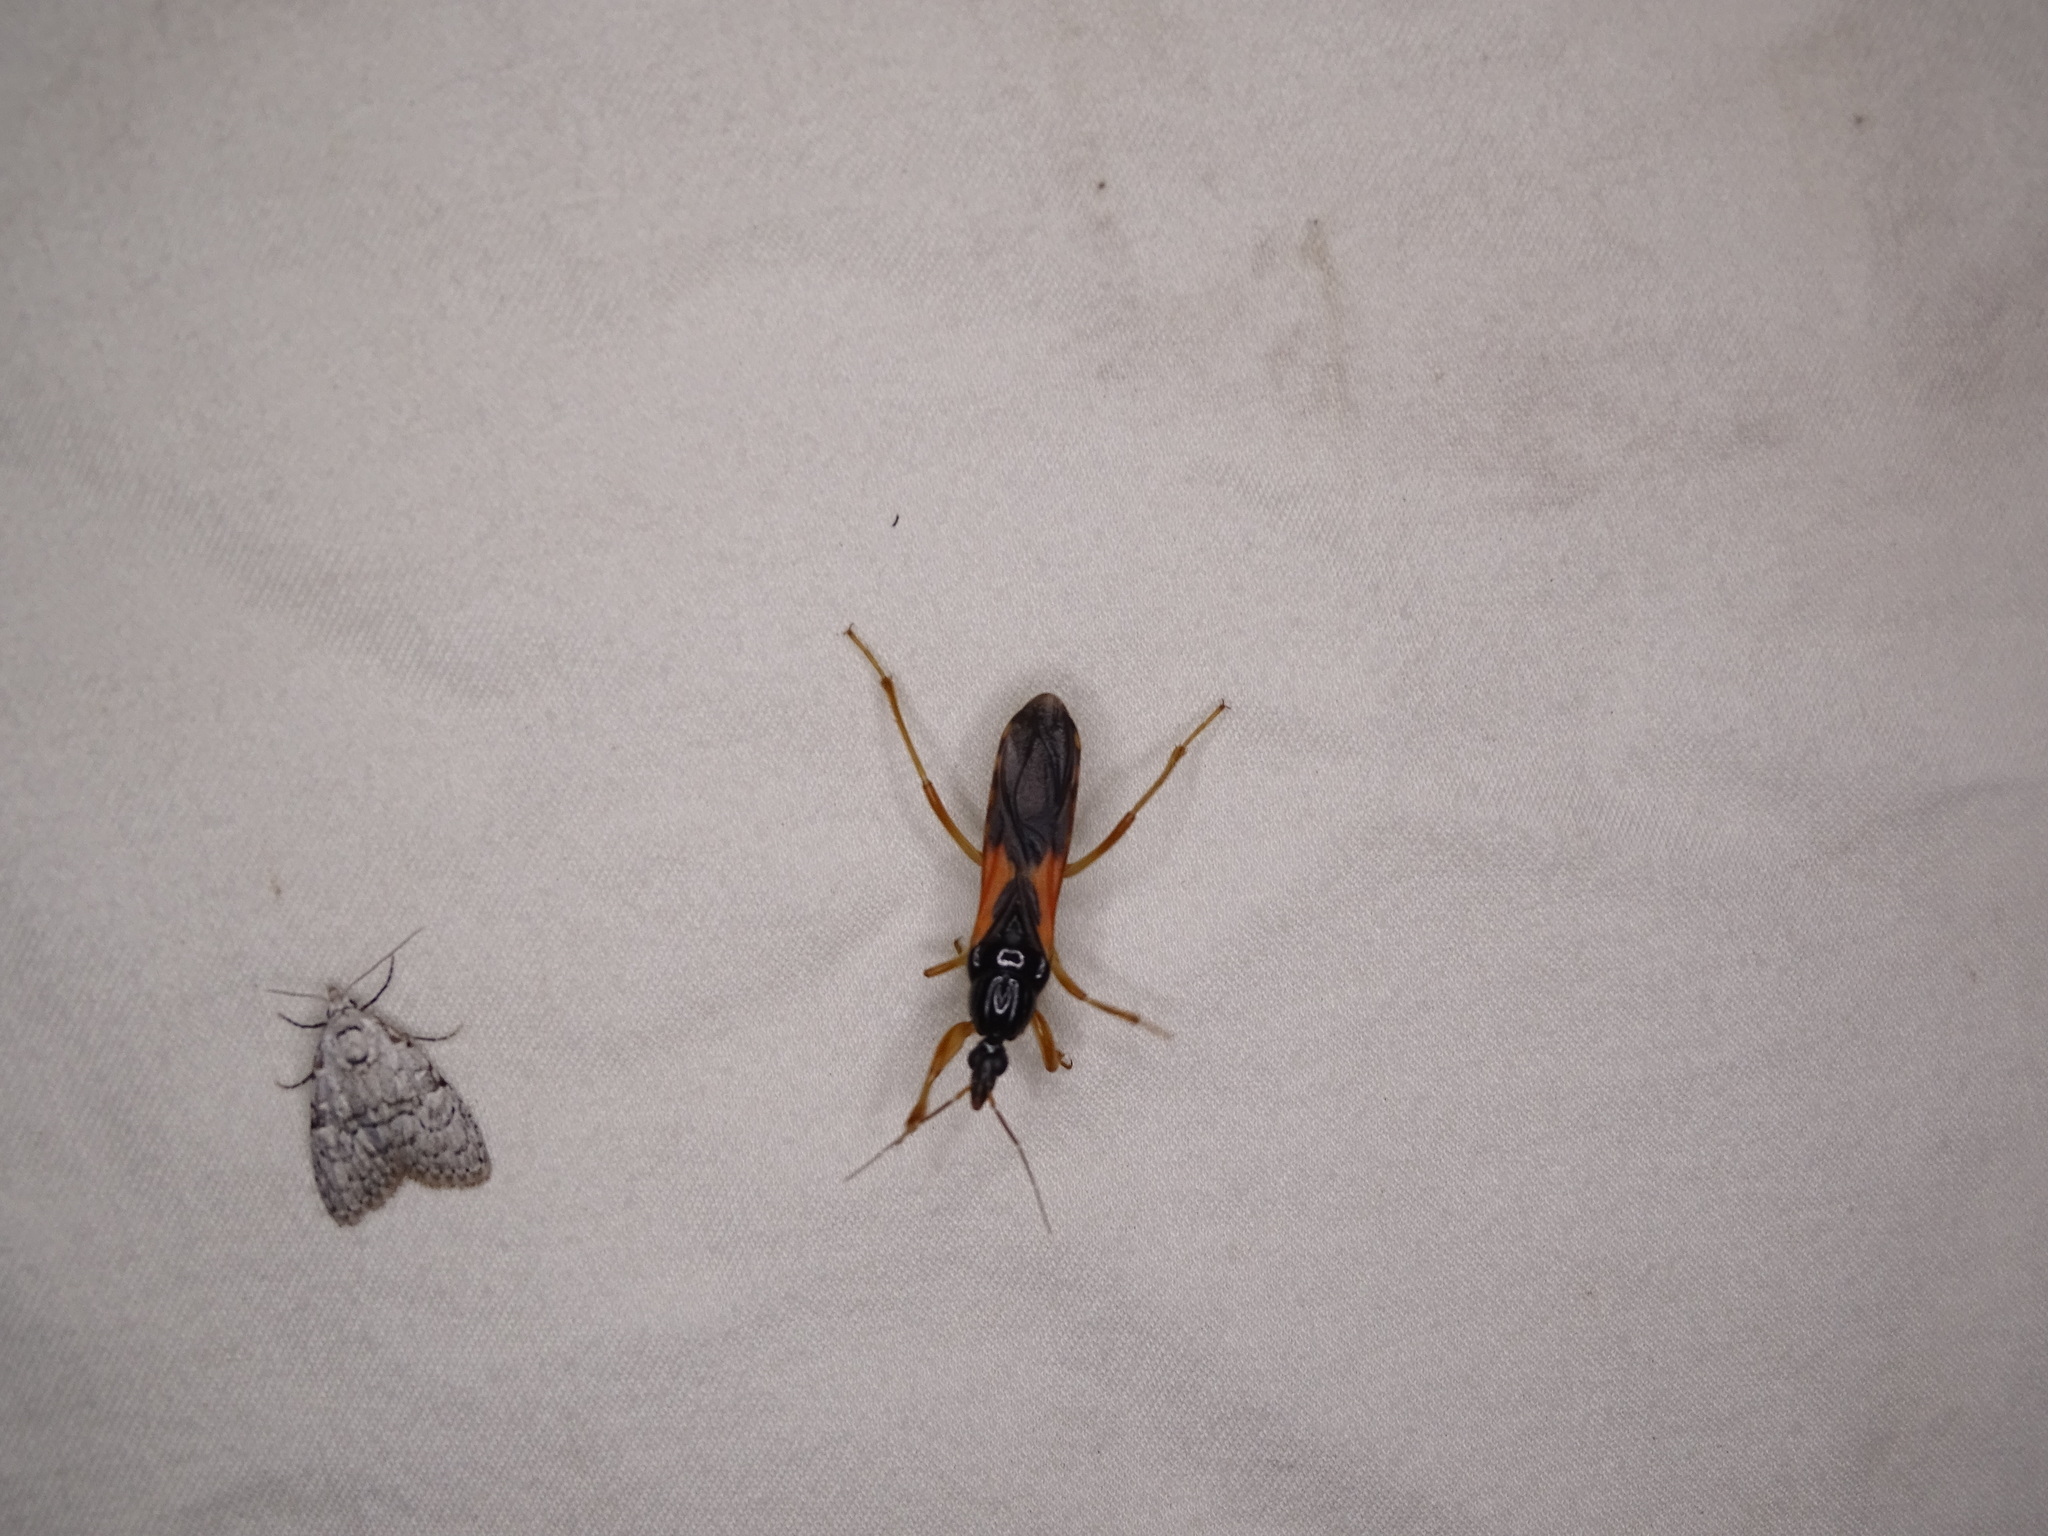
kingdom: Animalia
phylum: Arthropoda
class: Insecta
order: Hemiptera
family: Reduviidae
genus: Sirthenea
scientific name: Sirthenea stria
